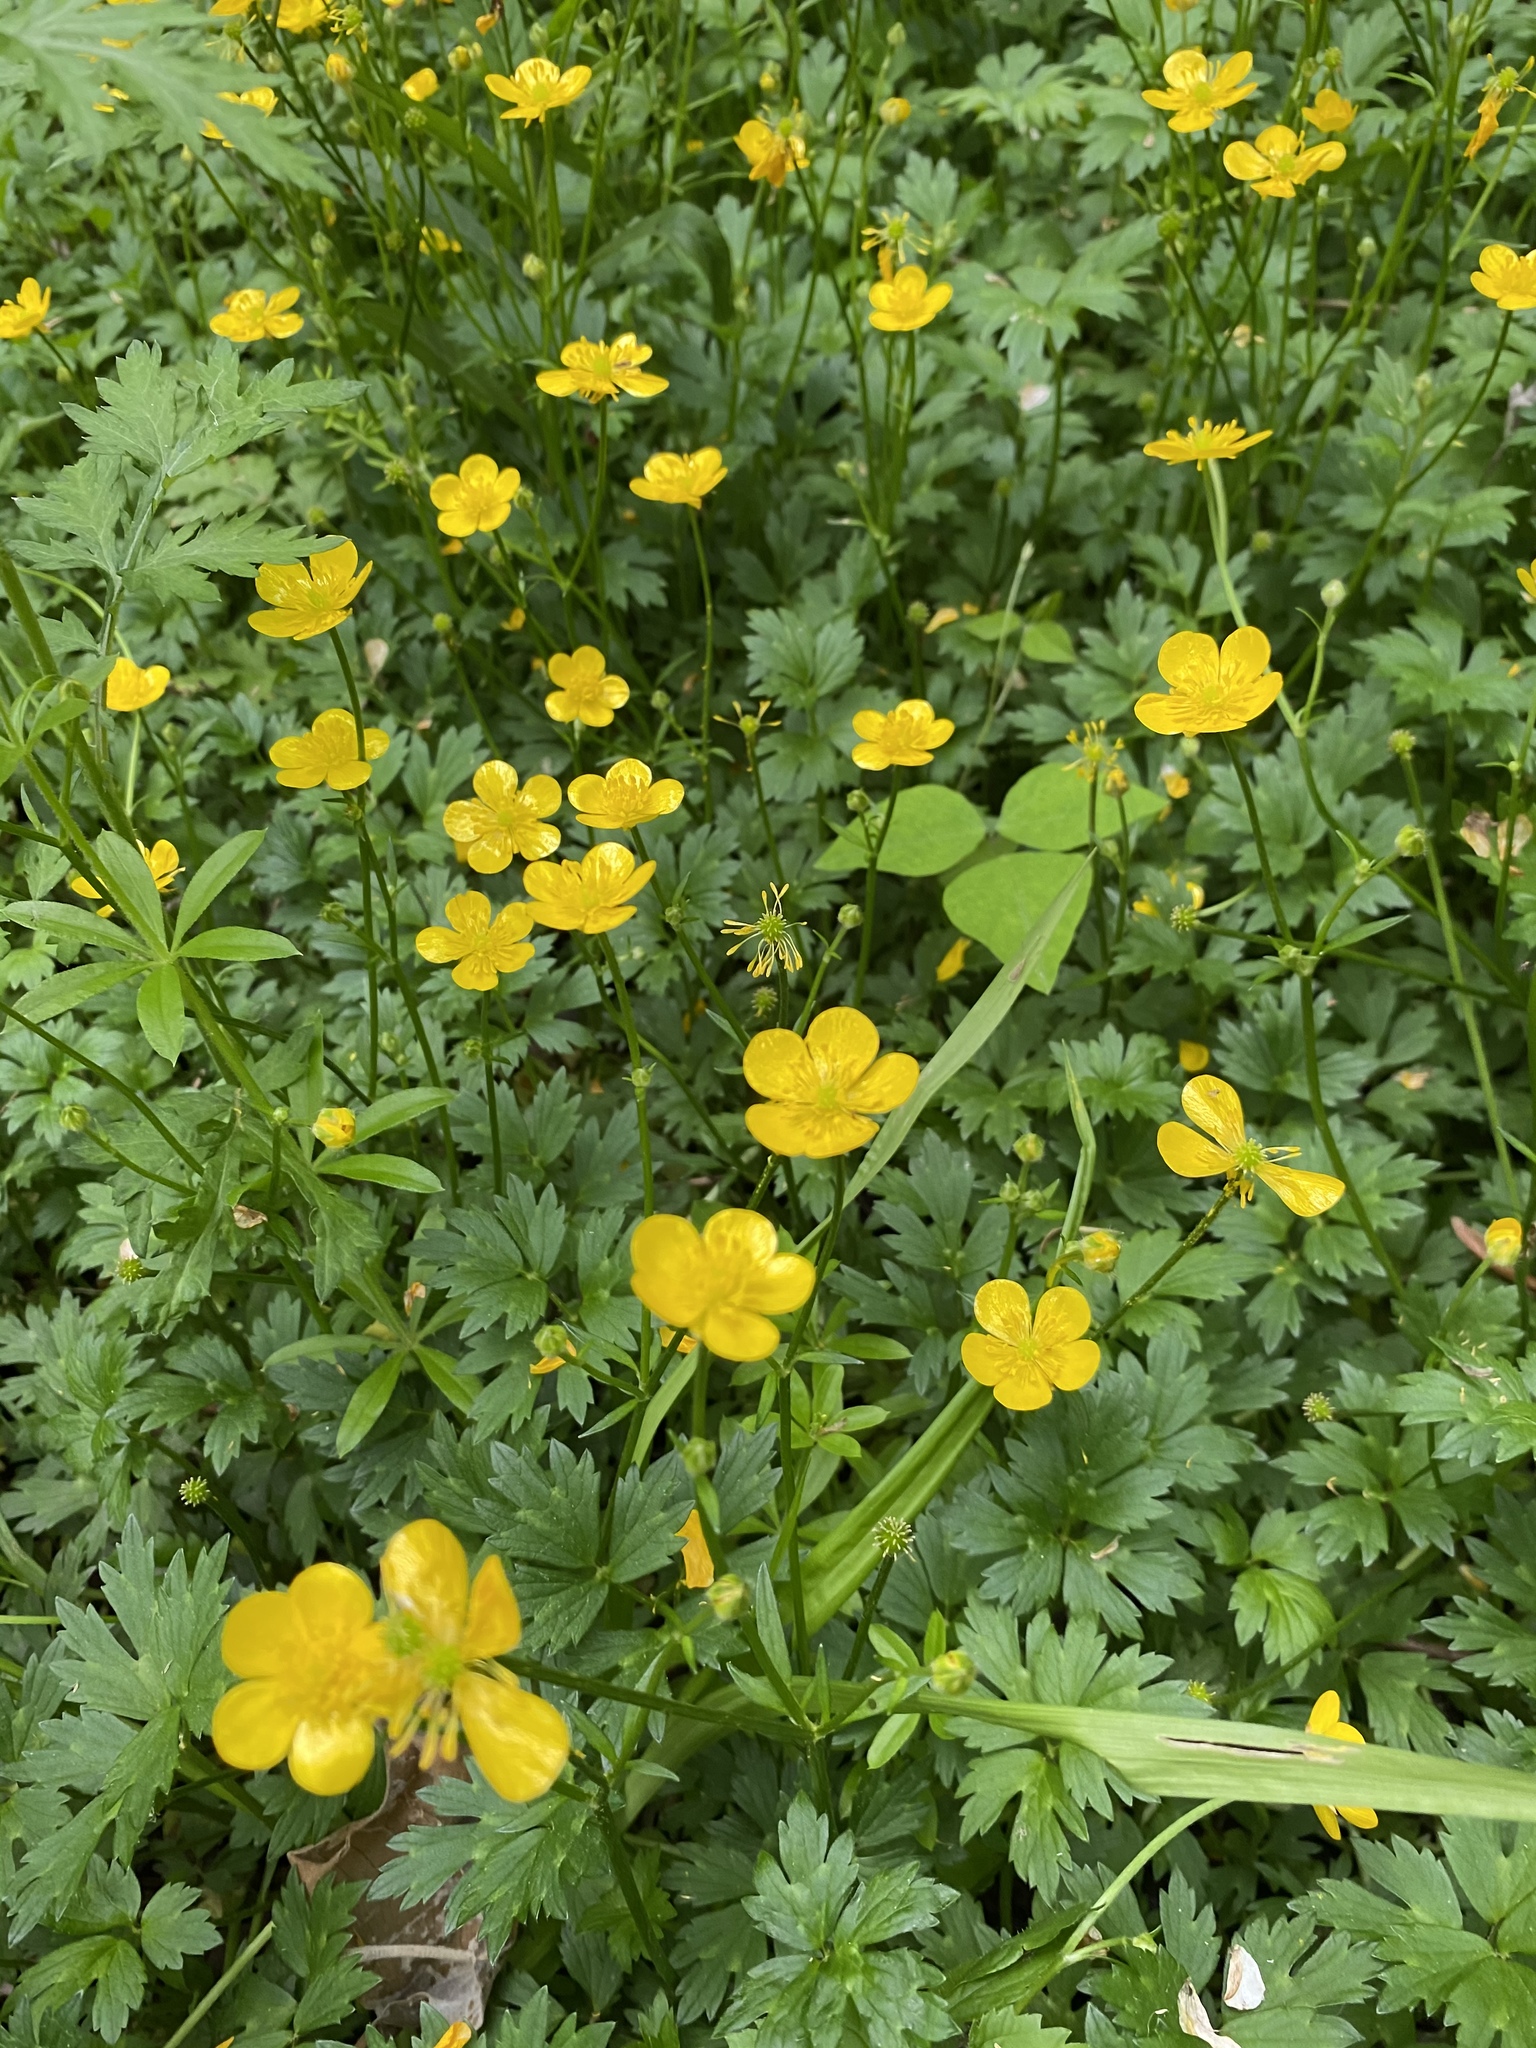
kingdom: Plantae
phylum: Tracheophyta
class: Magnoliopsida
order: Ranunculales
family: Ranunculaceae
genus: Ranunculus
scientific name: Ranunculus repens
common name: Creeping buttercup
